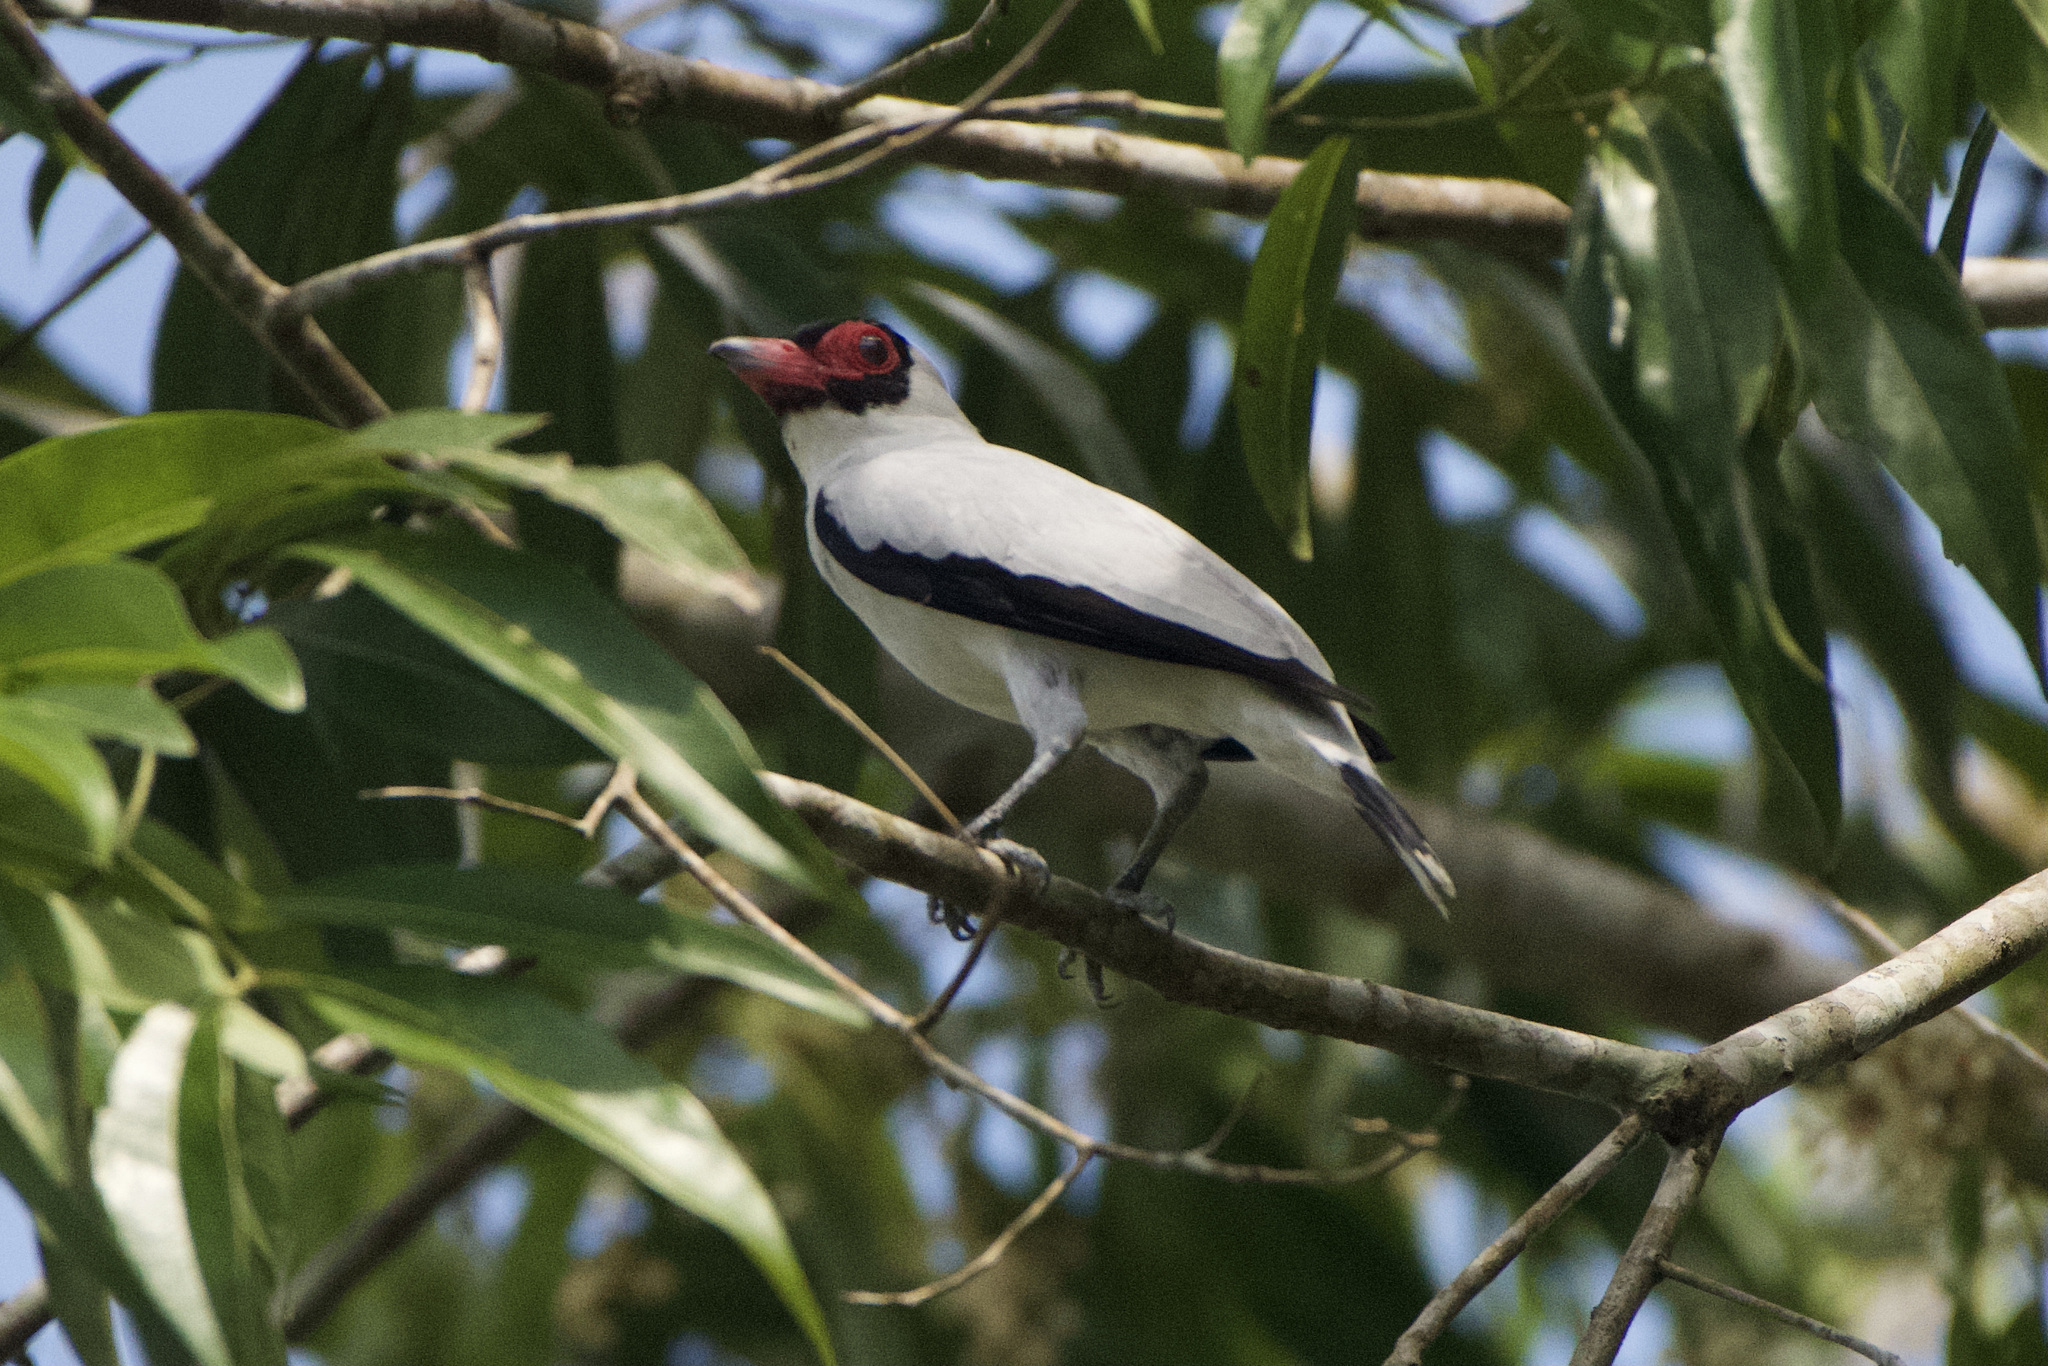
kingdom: Animalia
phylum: Chordata
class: Aves
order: Passeriformes
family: Cotingidae
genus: Tityra
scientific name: Tityra semifasciata
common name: Masked tityra
